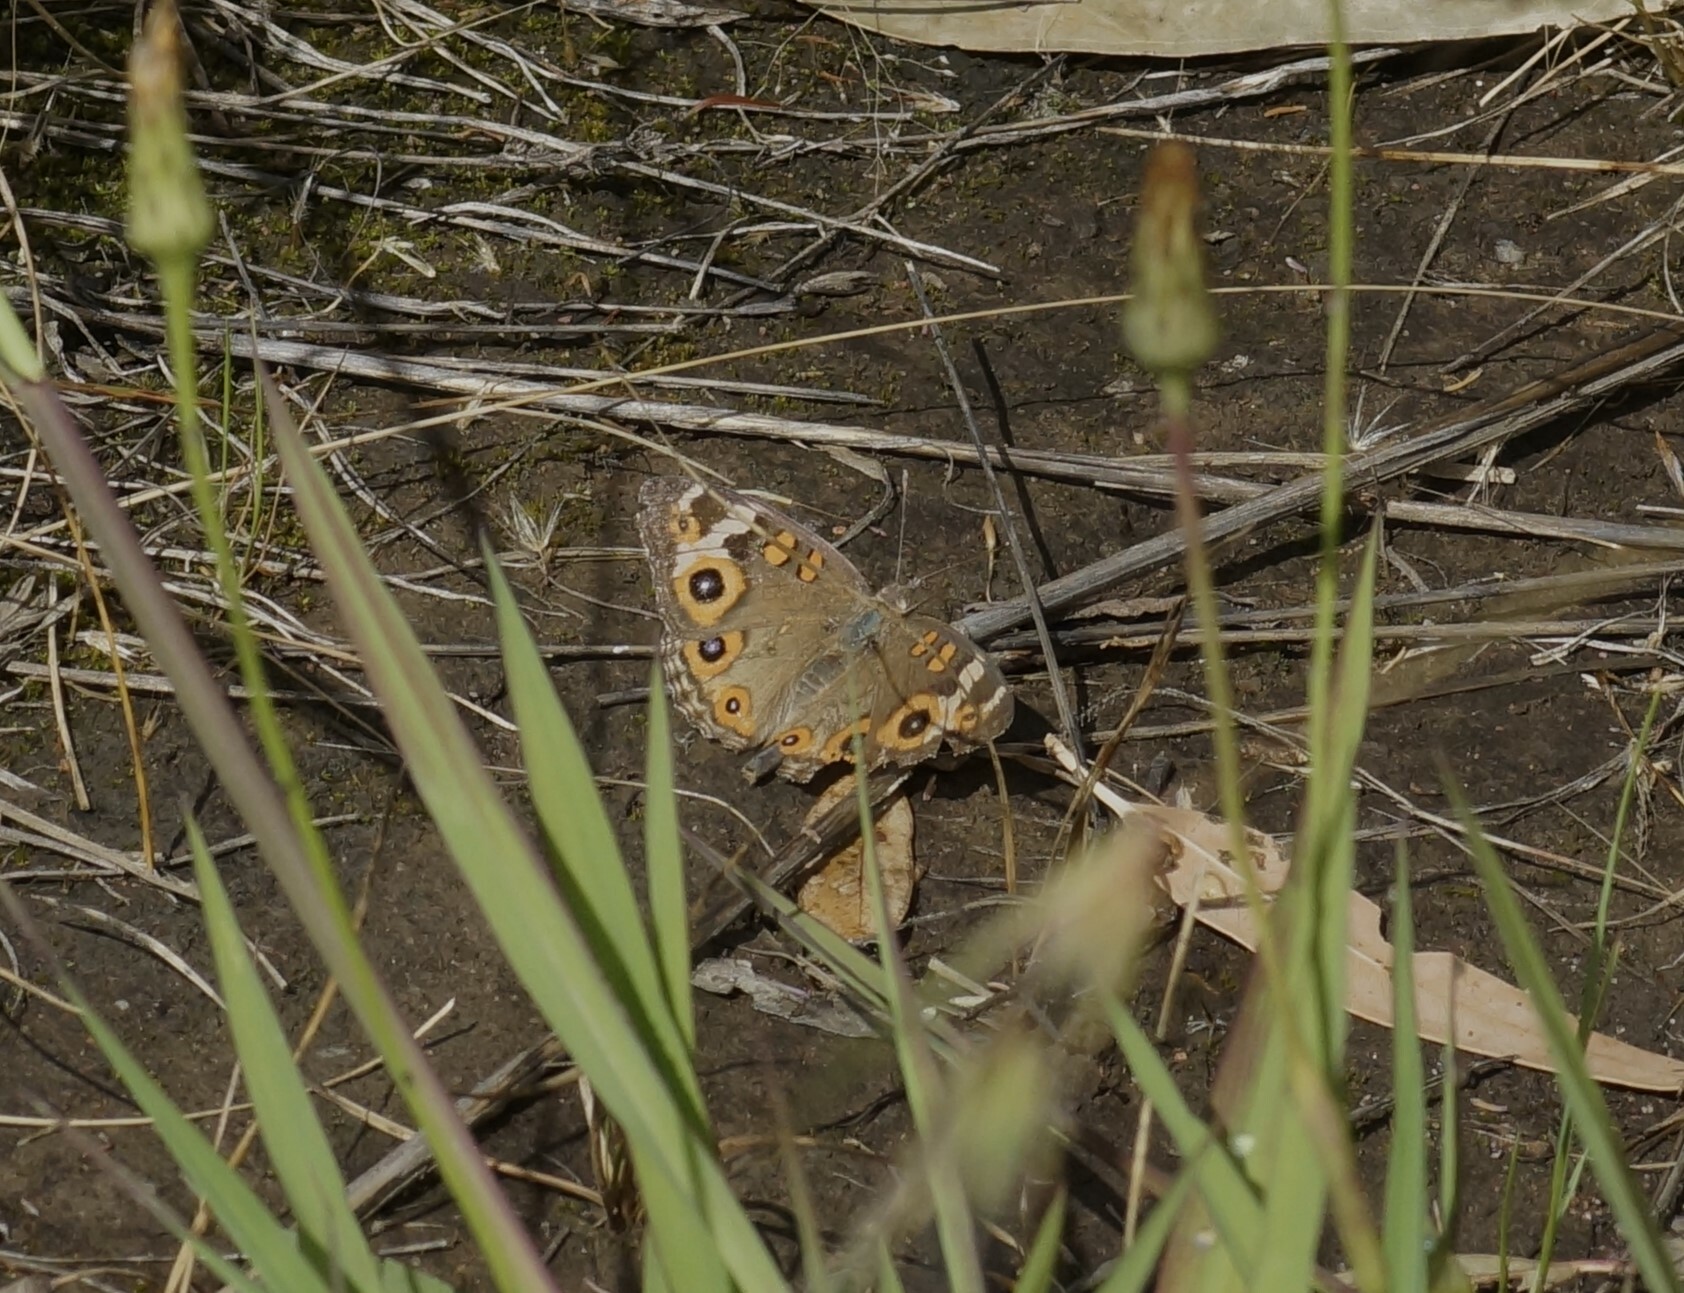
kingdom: Animalia
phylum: Arthropoda
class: Insecta
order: Lepidoptera
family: Nymphalidae
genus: Junonia
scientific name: Junonia villida
